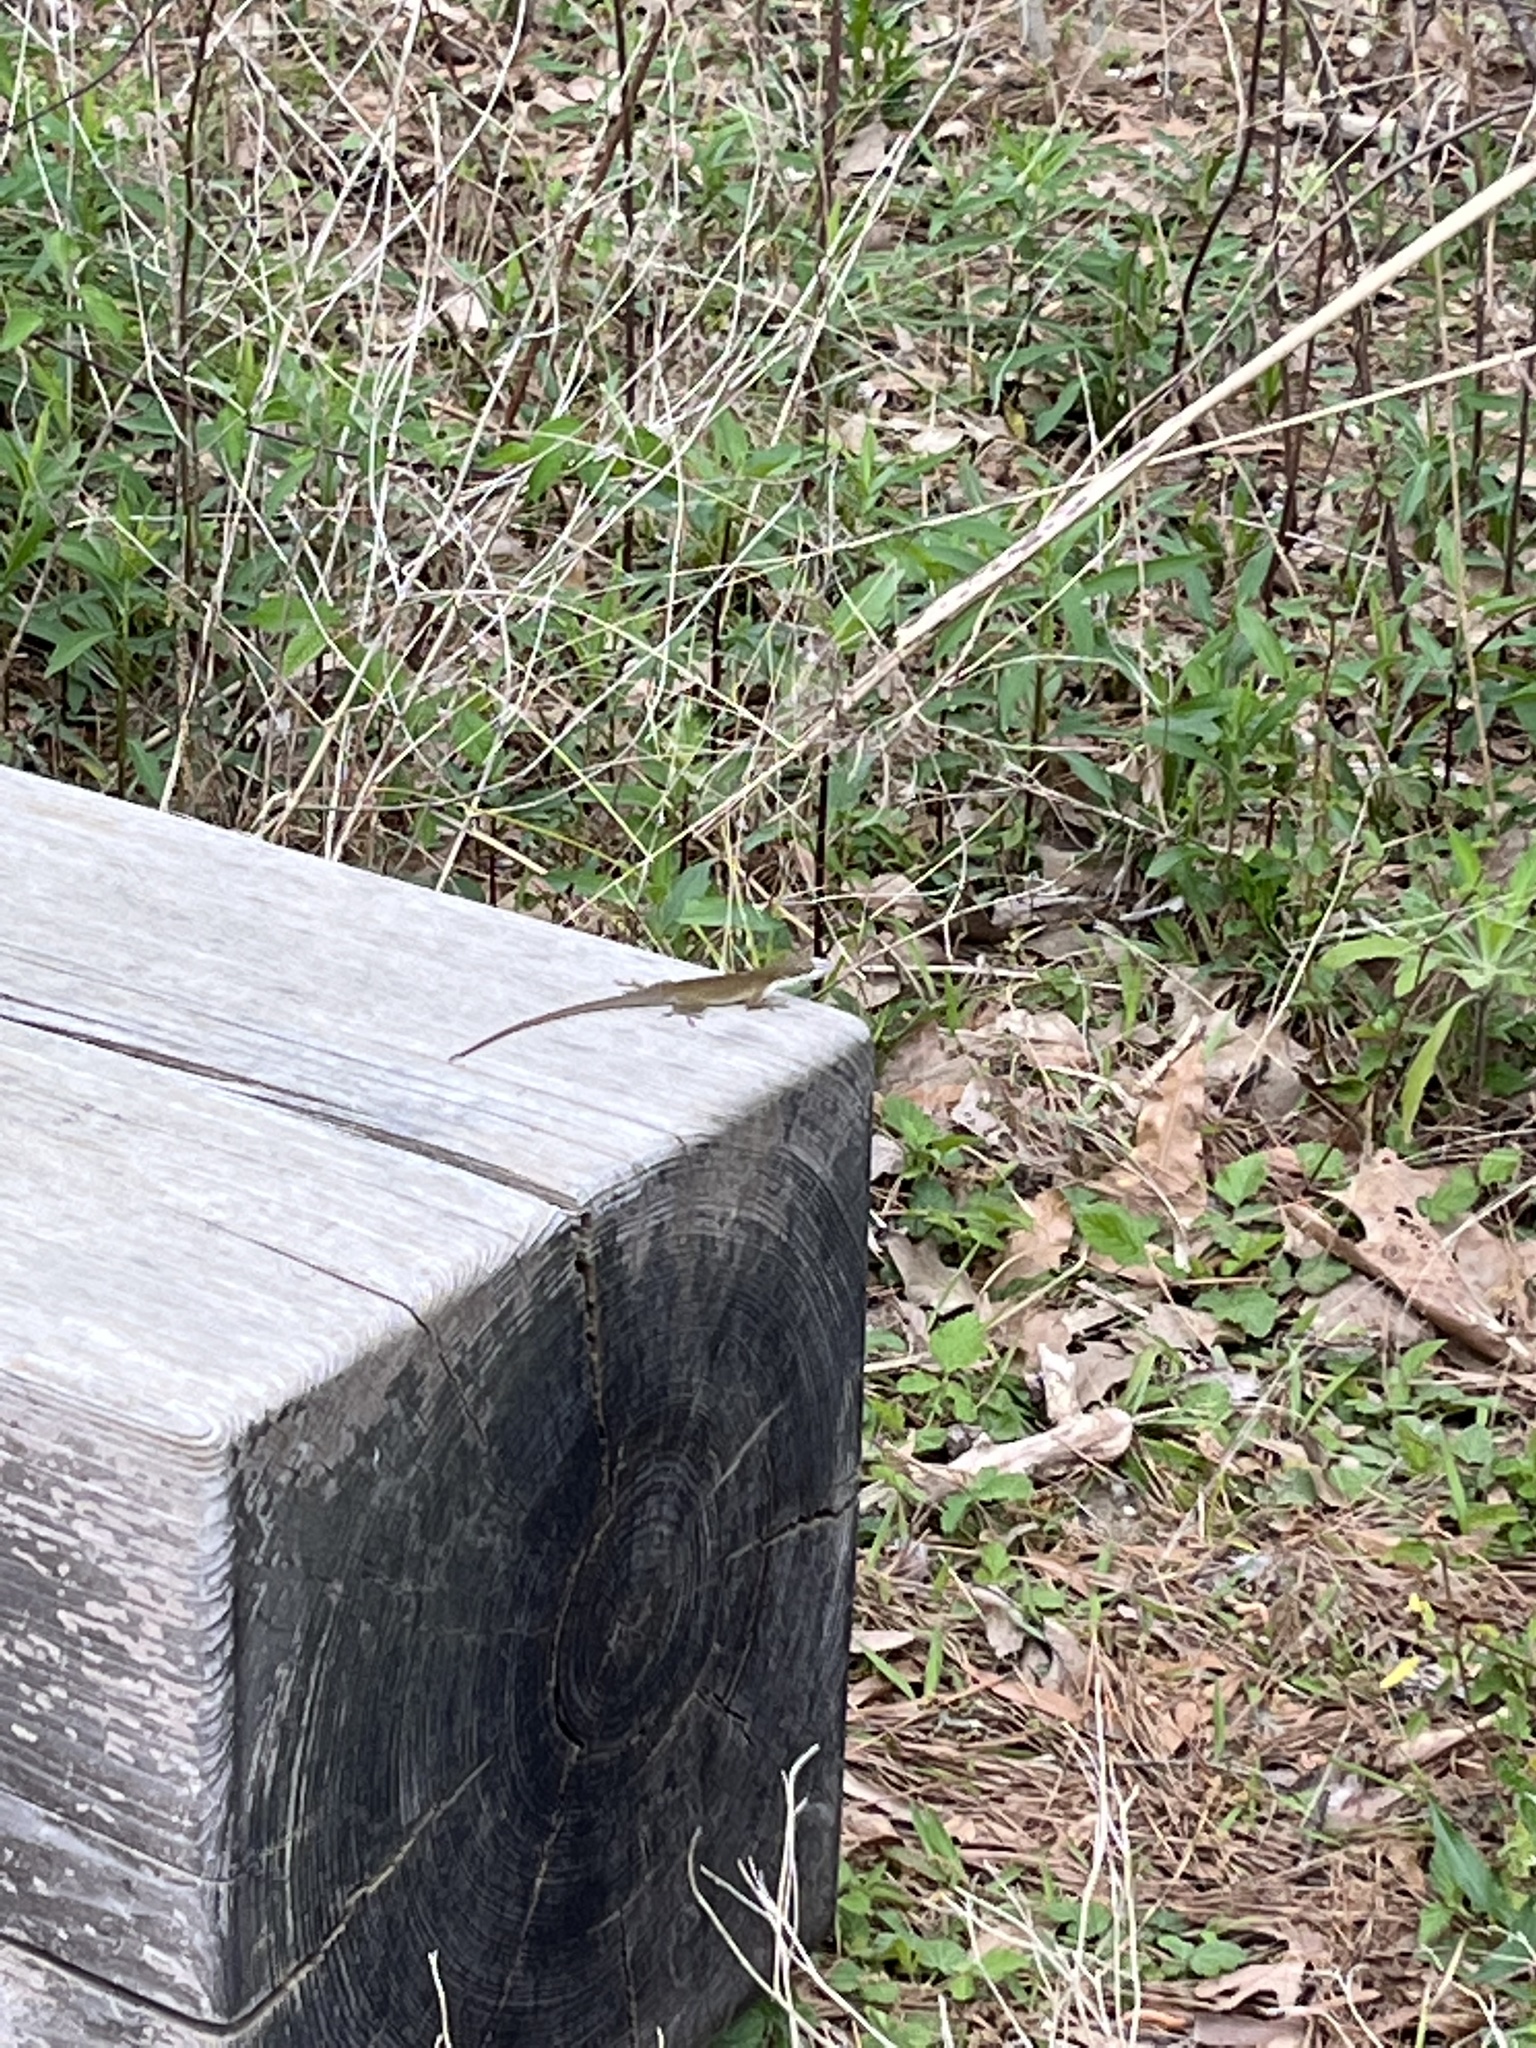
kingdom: Animalia
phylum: Chordata
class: Squamata
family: Dactyloidae
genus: Anolis
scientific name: Anolis carolinensis
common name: Green anole
